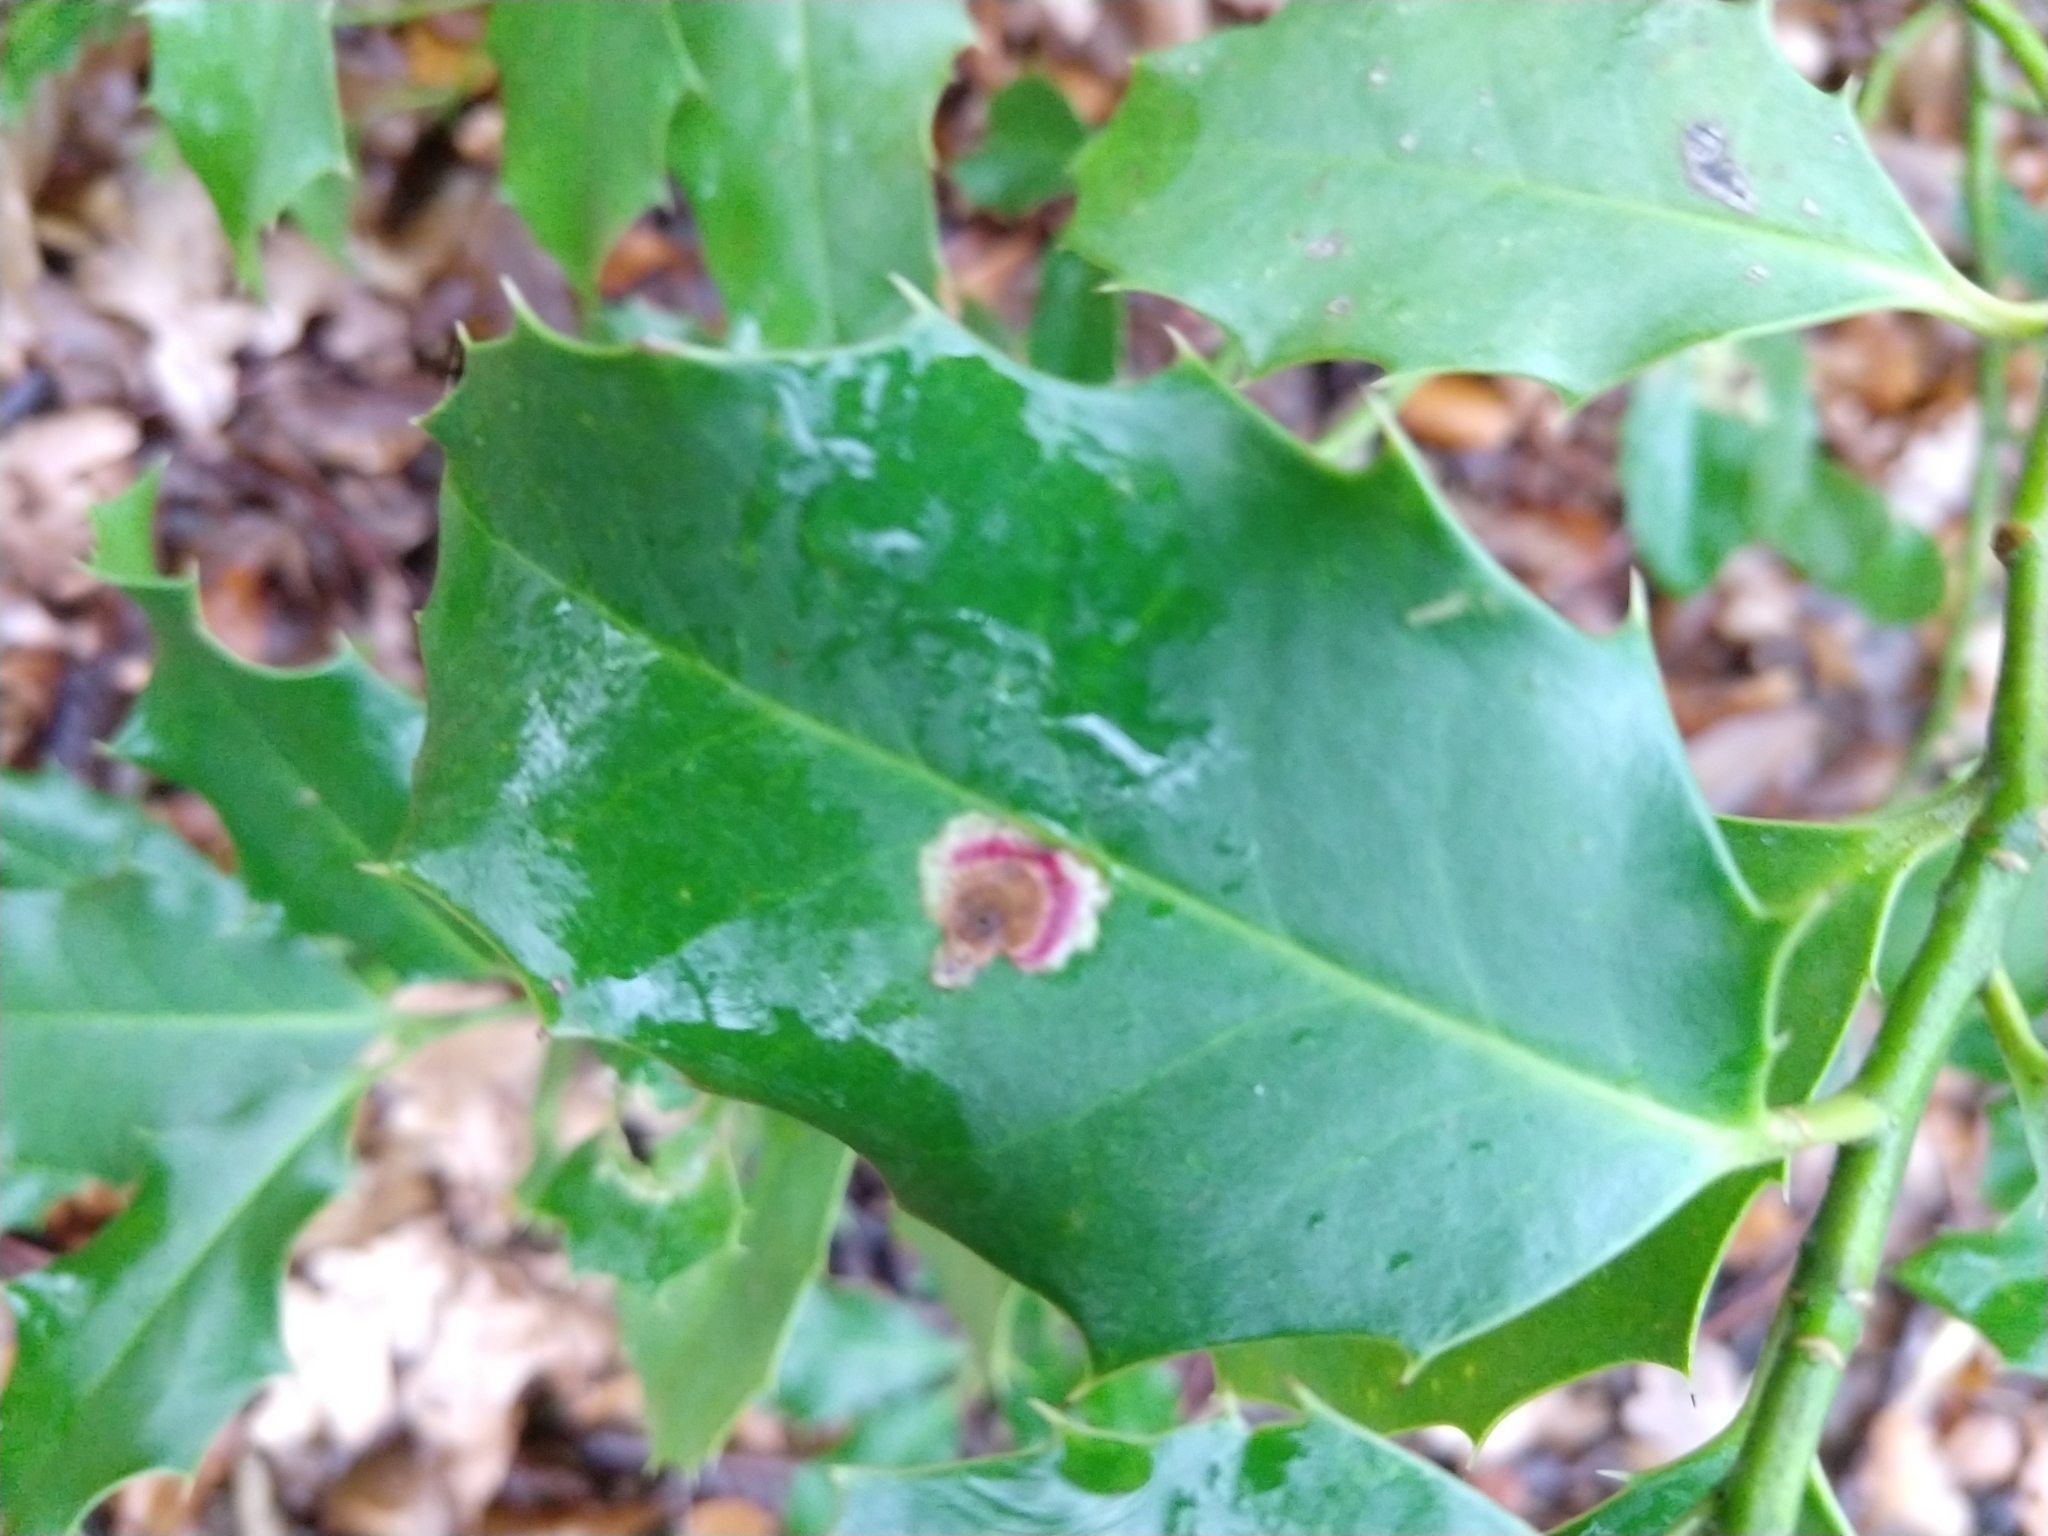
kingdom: Animalia
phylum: Arthropoda
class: Insecta
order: Diptera
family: Agromyzidae
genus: Phytomyza
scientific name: Phytomyza ilicis
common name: Holly leafminer
